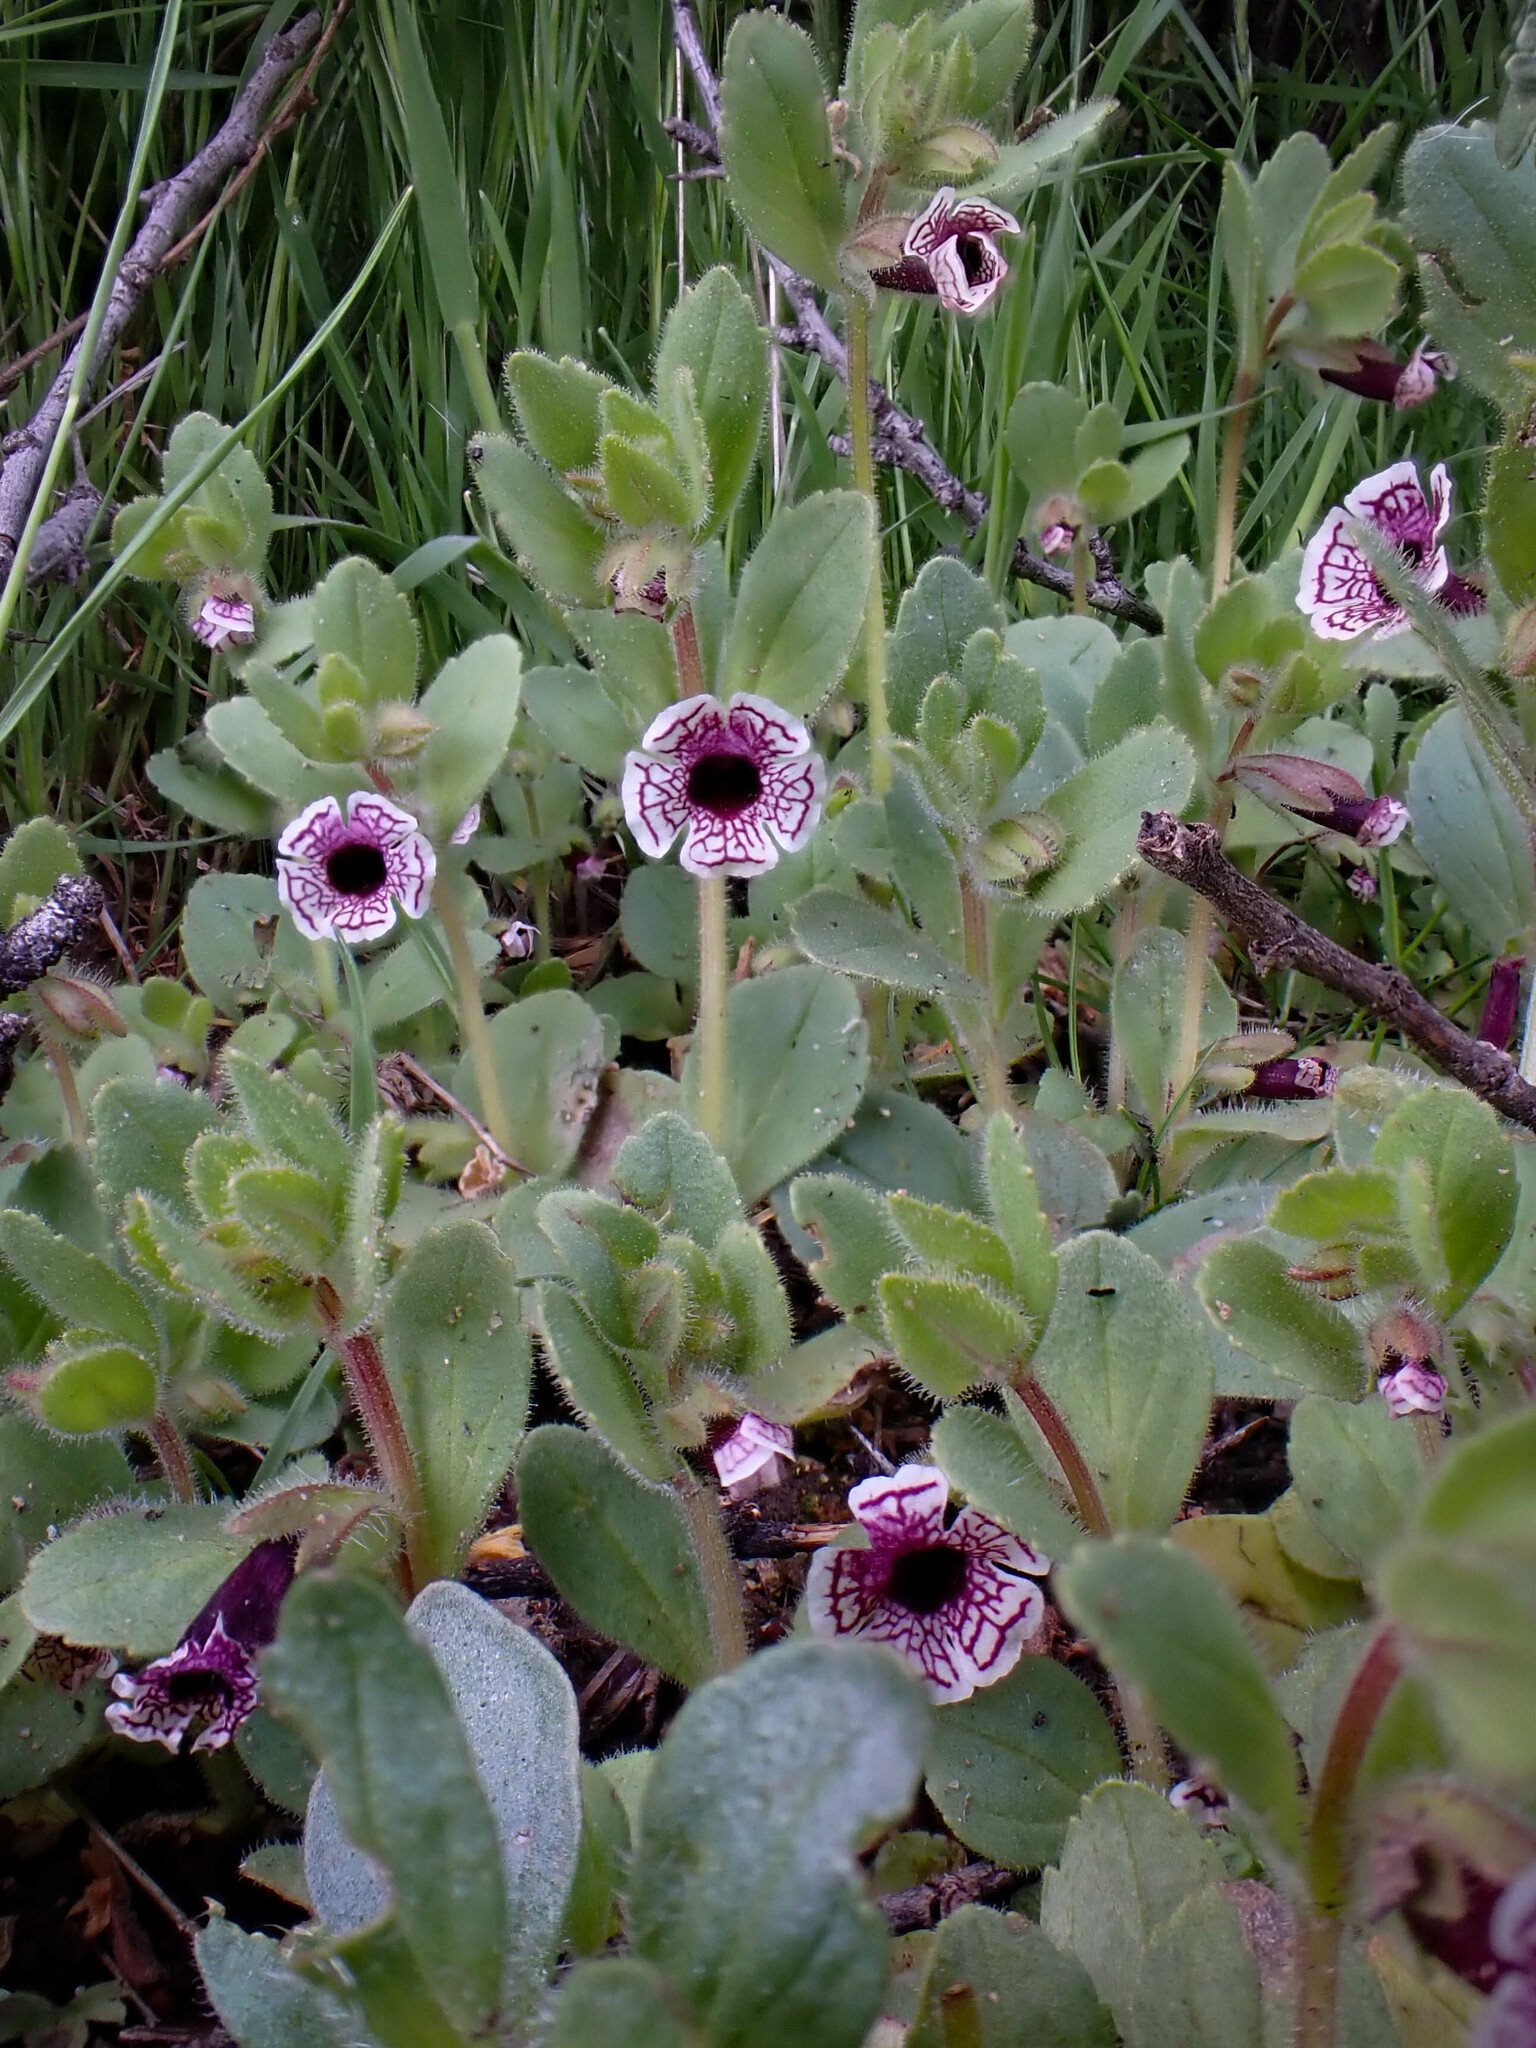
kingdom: Plantae
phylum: Tracheophyta
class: Magnoliopsida
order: Lamiales
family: Phrymaceae
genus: Diplacus
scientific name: Diplacus pictus
